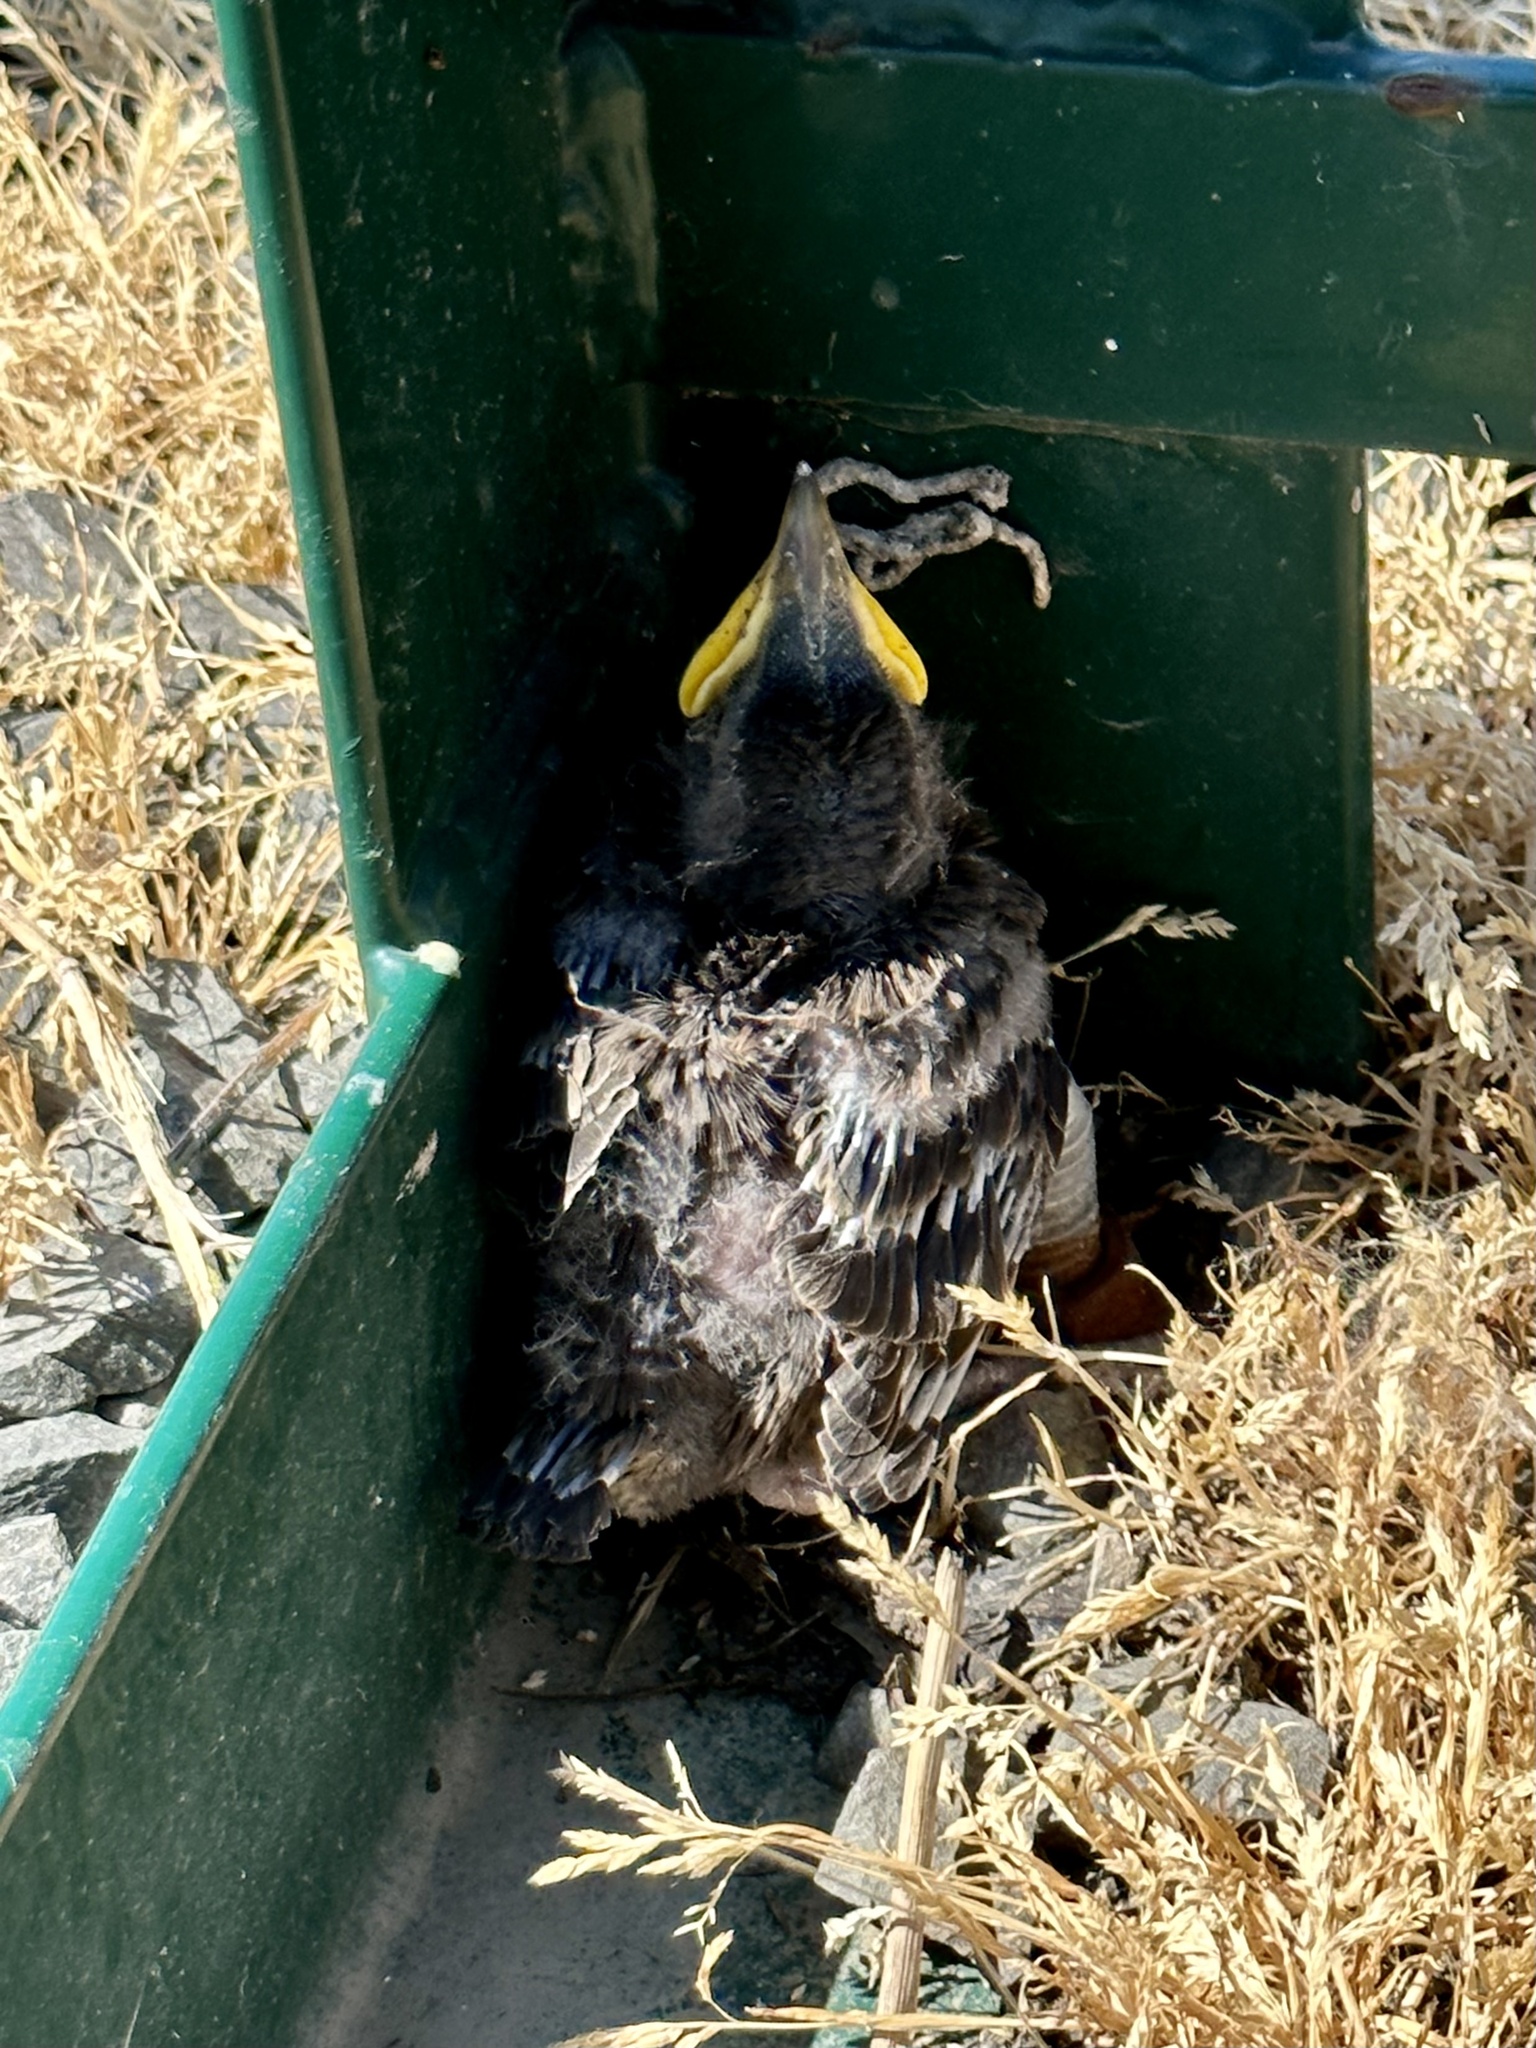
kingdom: Animalia
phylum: Chordata
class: Aves
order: Passeriformes
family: Sturnidae
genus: Sturnus
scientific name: Sturnus vulgaris
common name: Common starling
